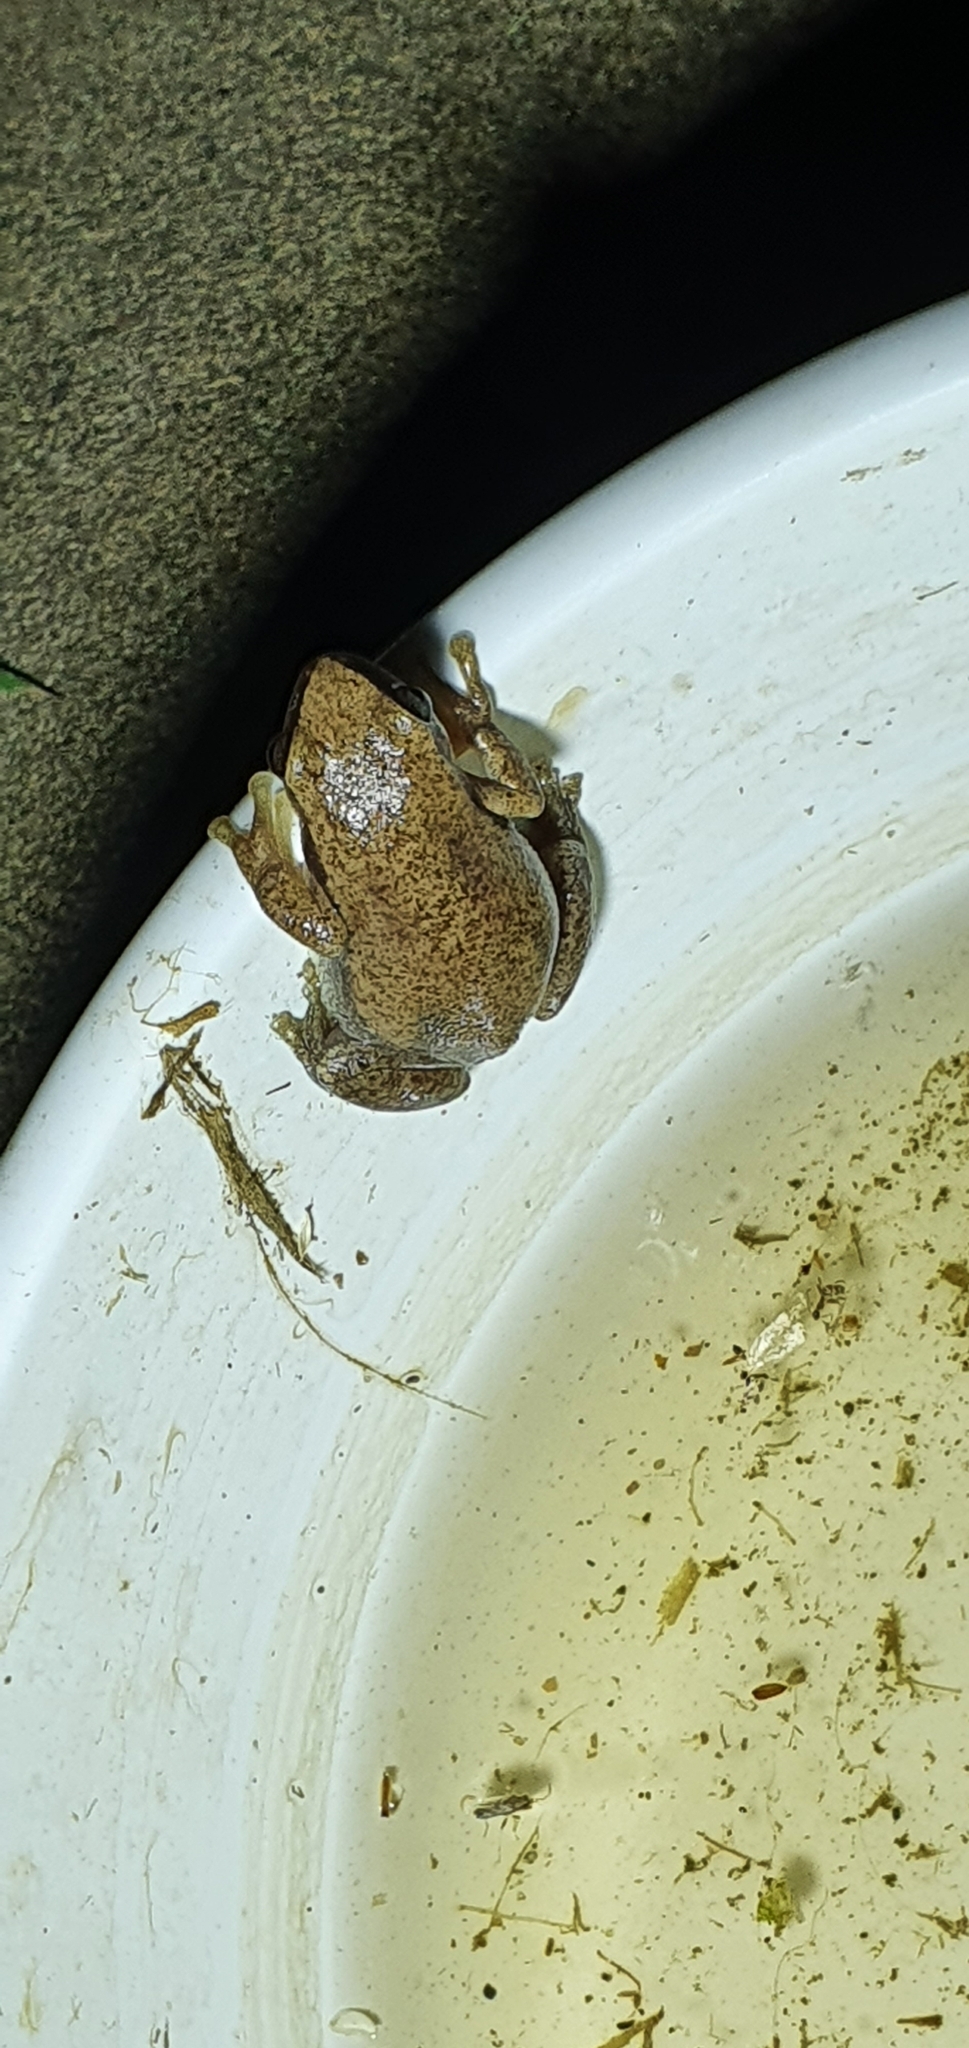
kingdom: Animalia
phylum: Chordata
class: Amphibia
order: Anura
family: Pelodryadidae
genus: Litoria
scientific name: Litoria rubella
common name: Desert tree frog
